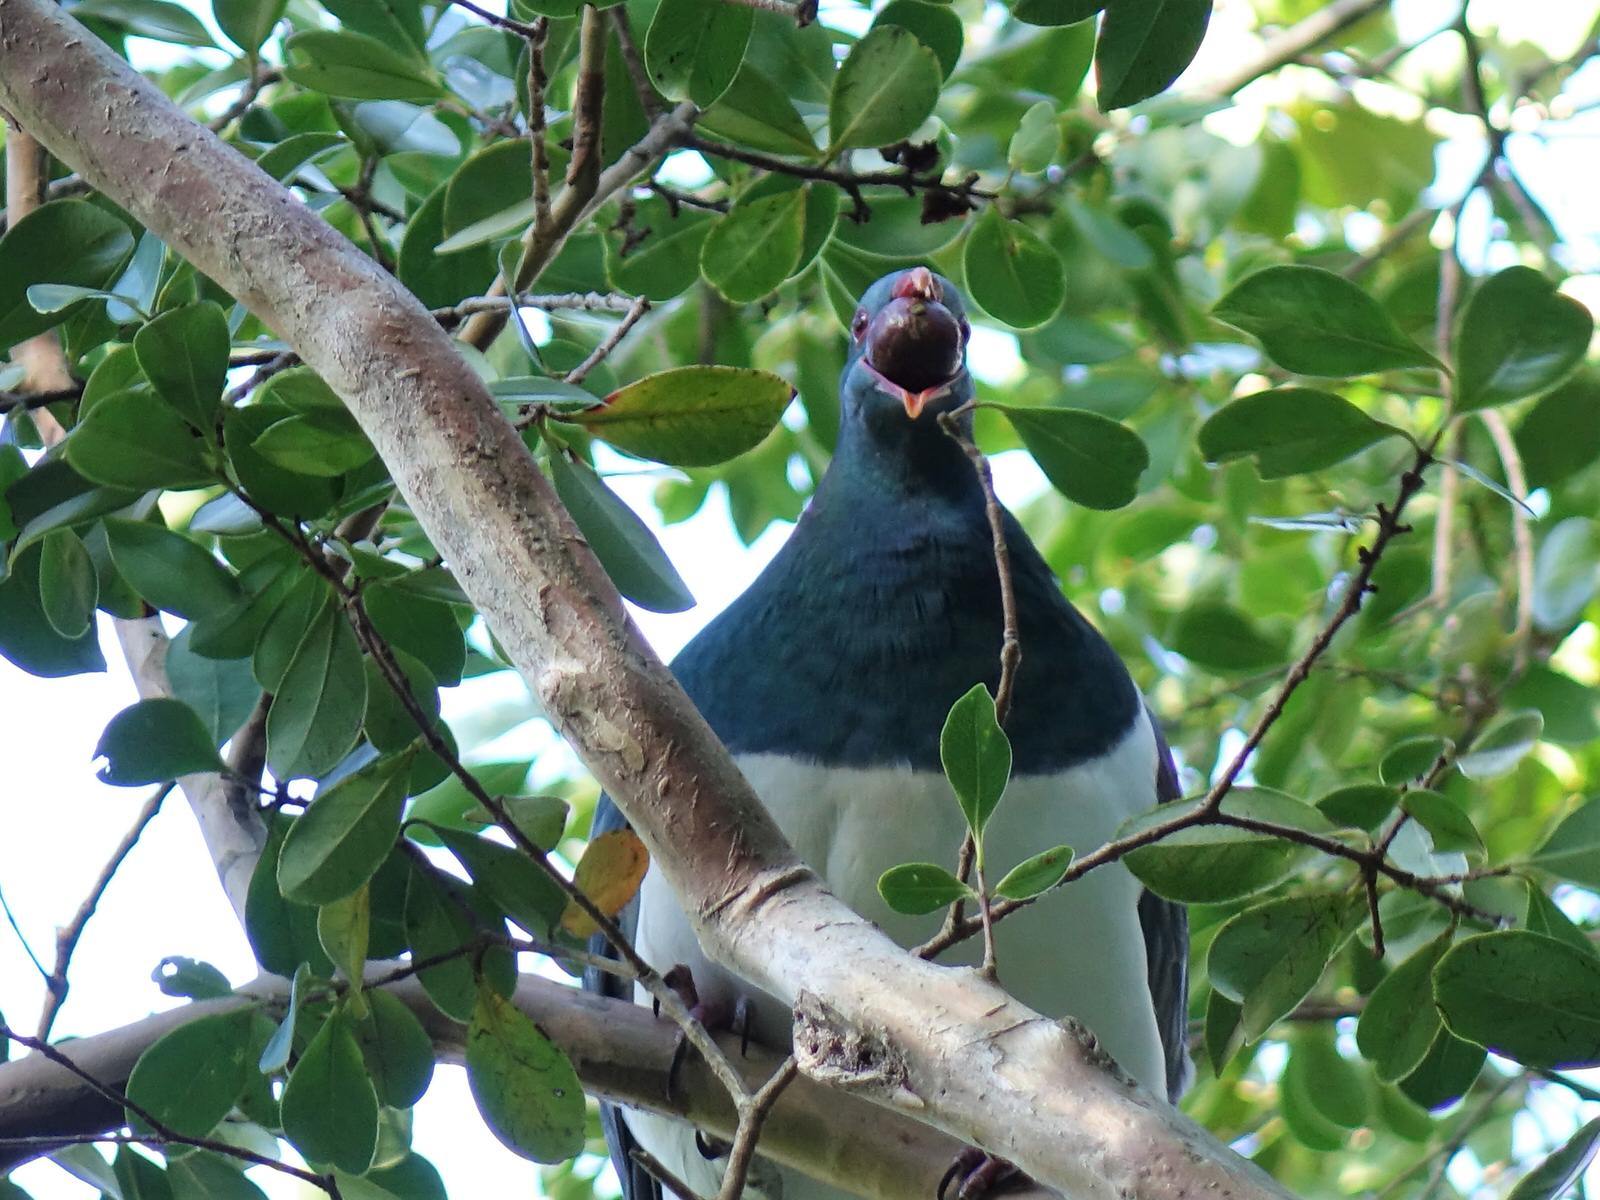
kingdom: Animalia
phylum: Chordata
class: Aves
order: Columbiformes
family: Columbidae
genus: Hemiphaga
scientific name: Hemiphaga novaeseelandiae
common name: New zealand pigeon
